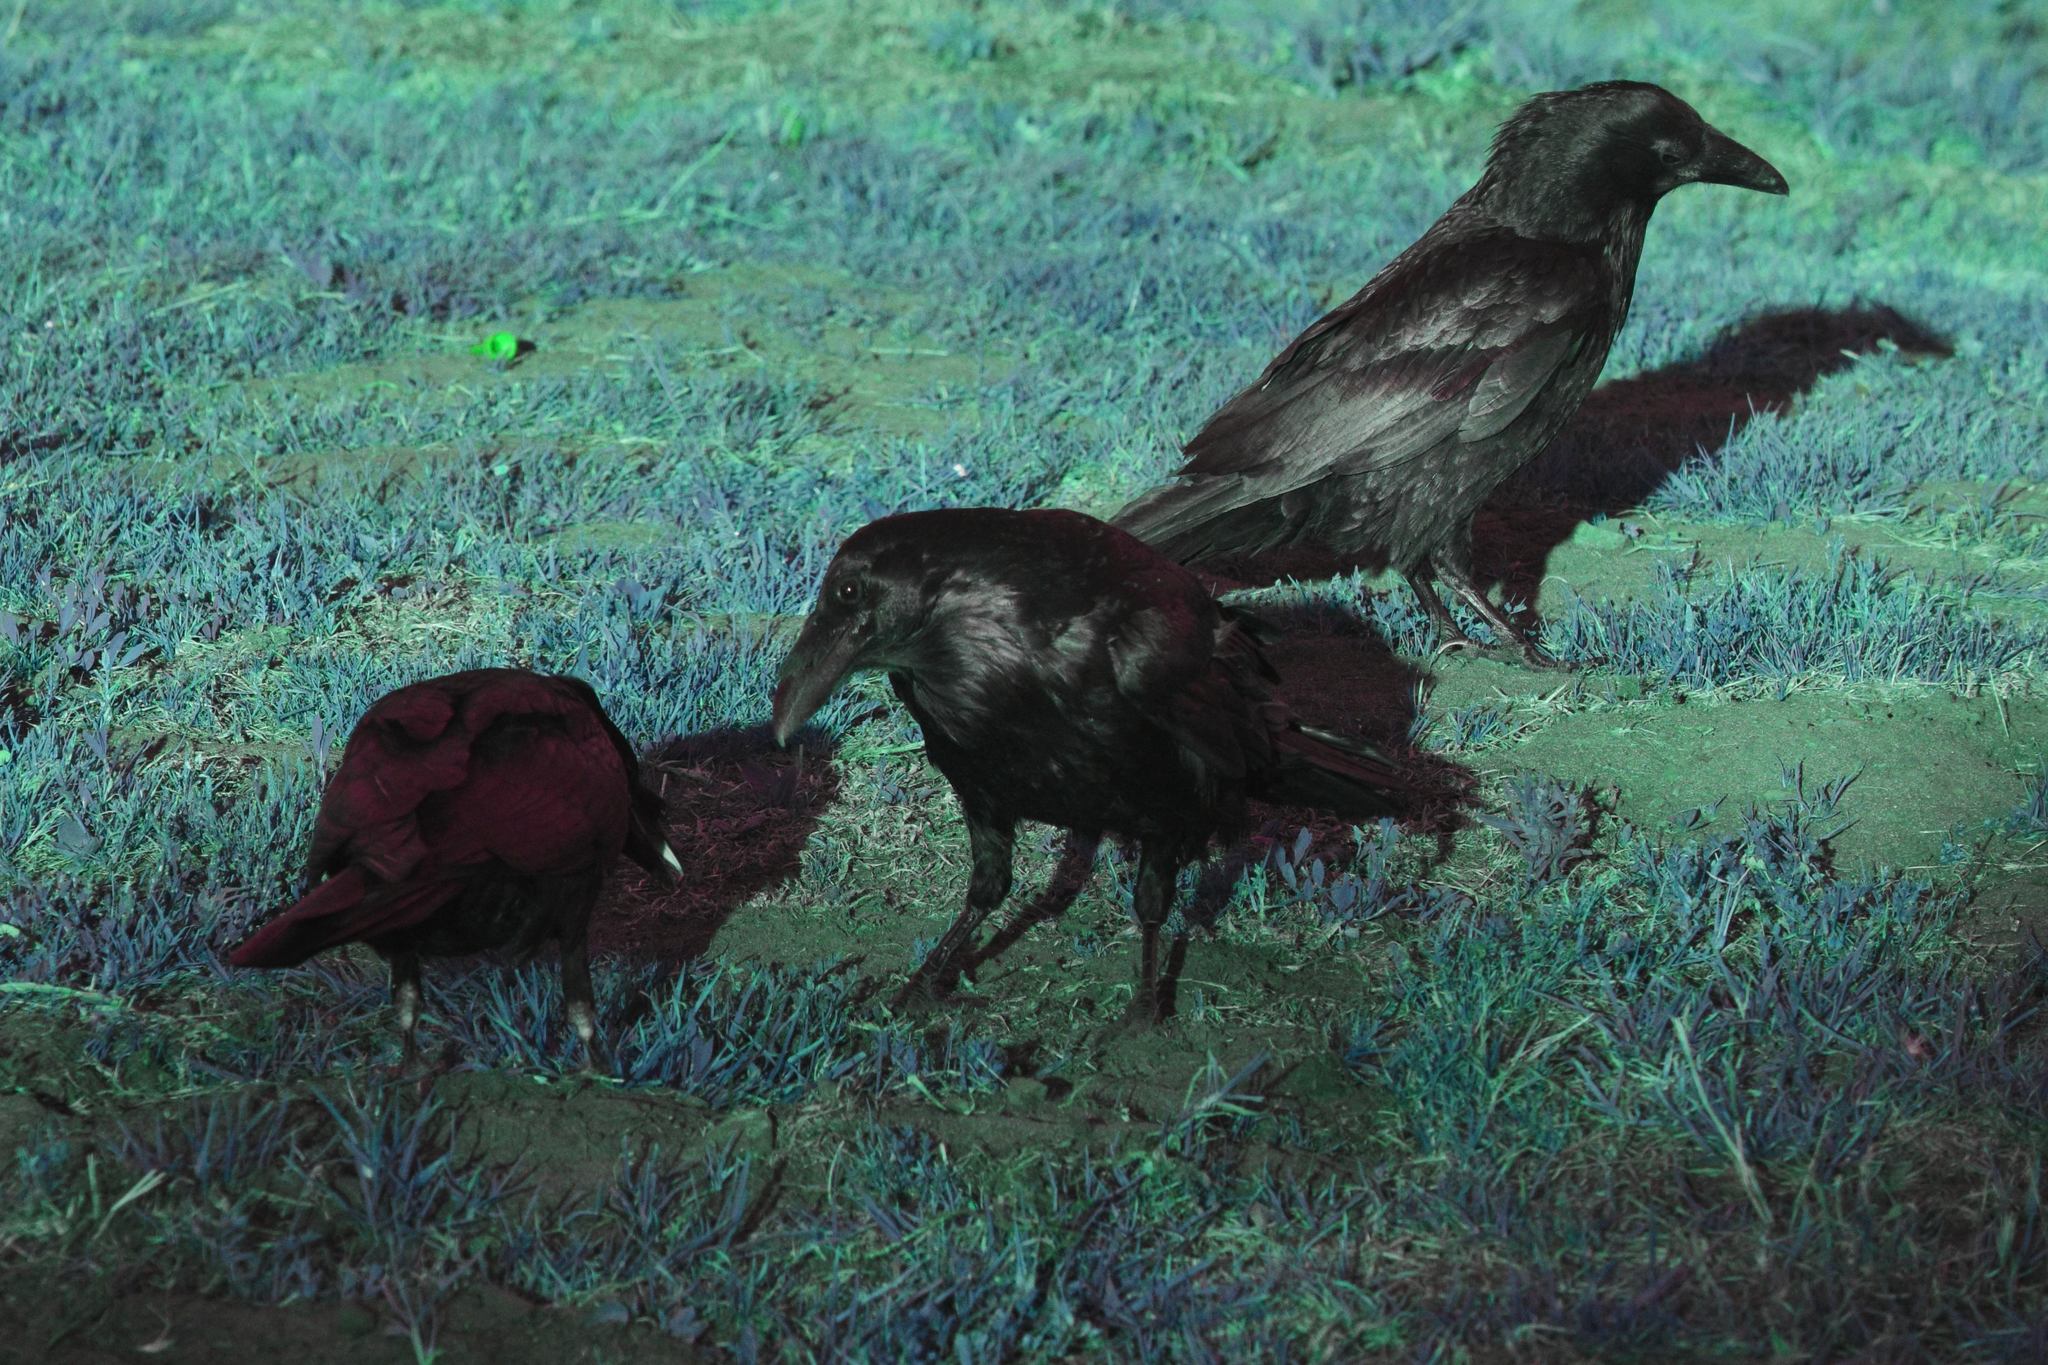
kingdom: Animalia
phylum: Chordata
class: Aves
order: Passeriformes
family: Corvidae
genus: Corvus
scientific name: Corvus corax
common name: Common raven
